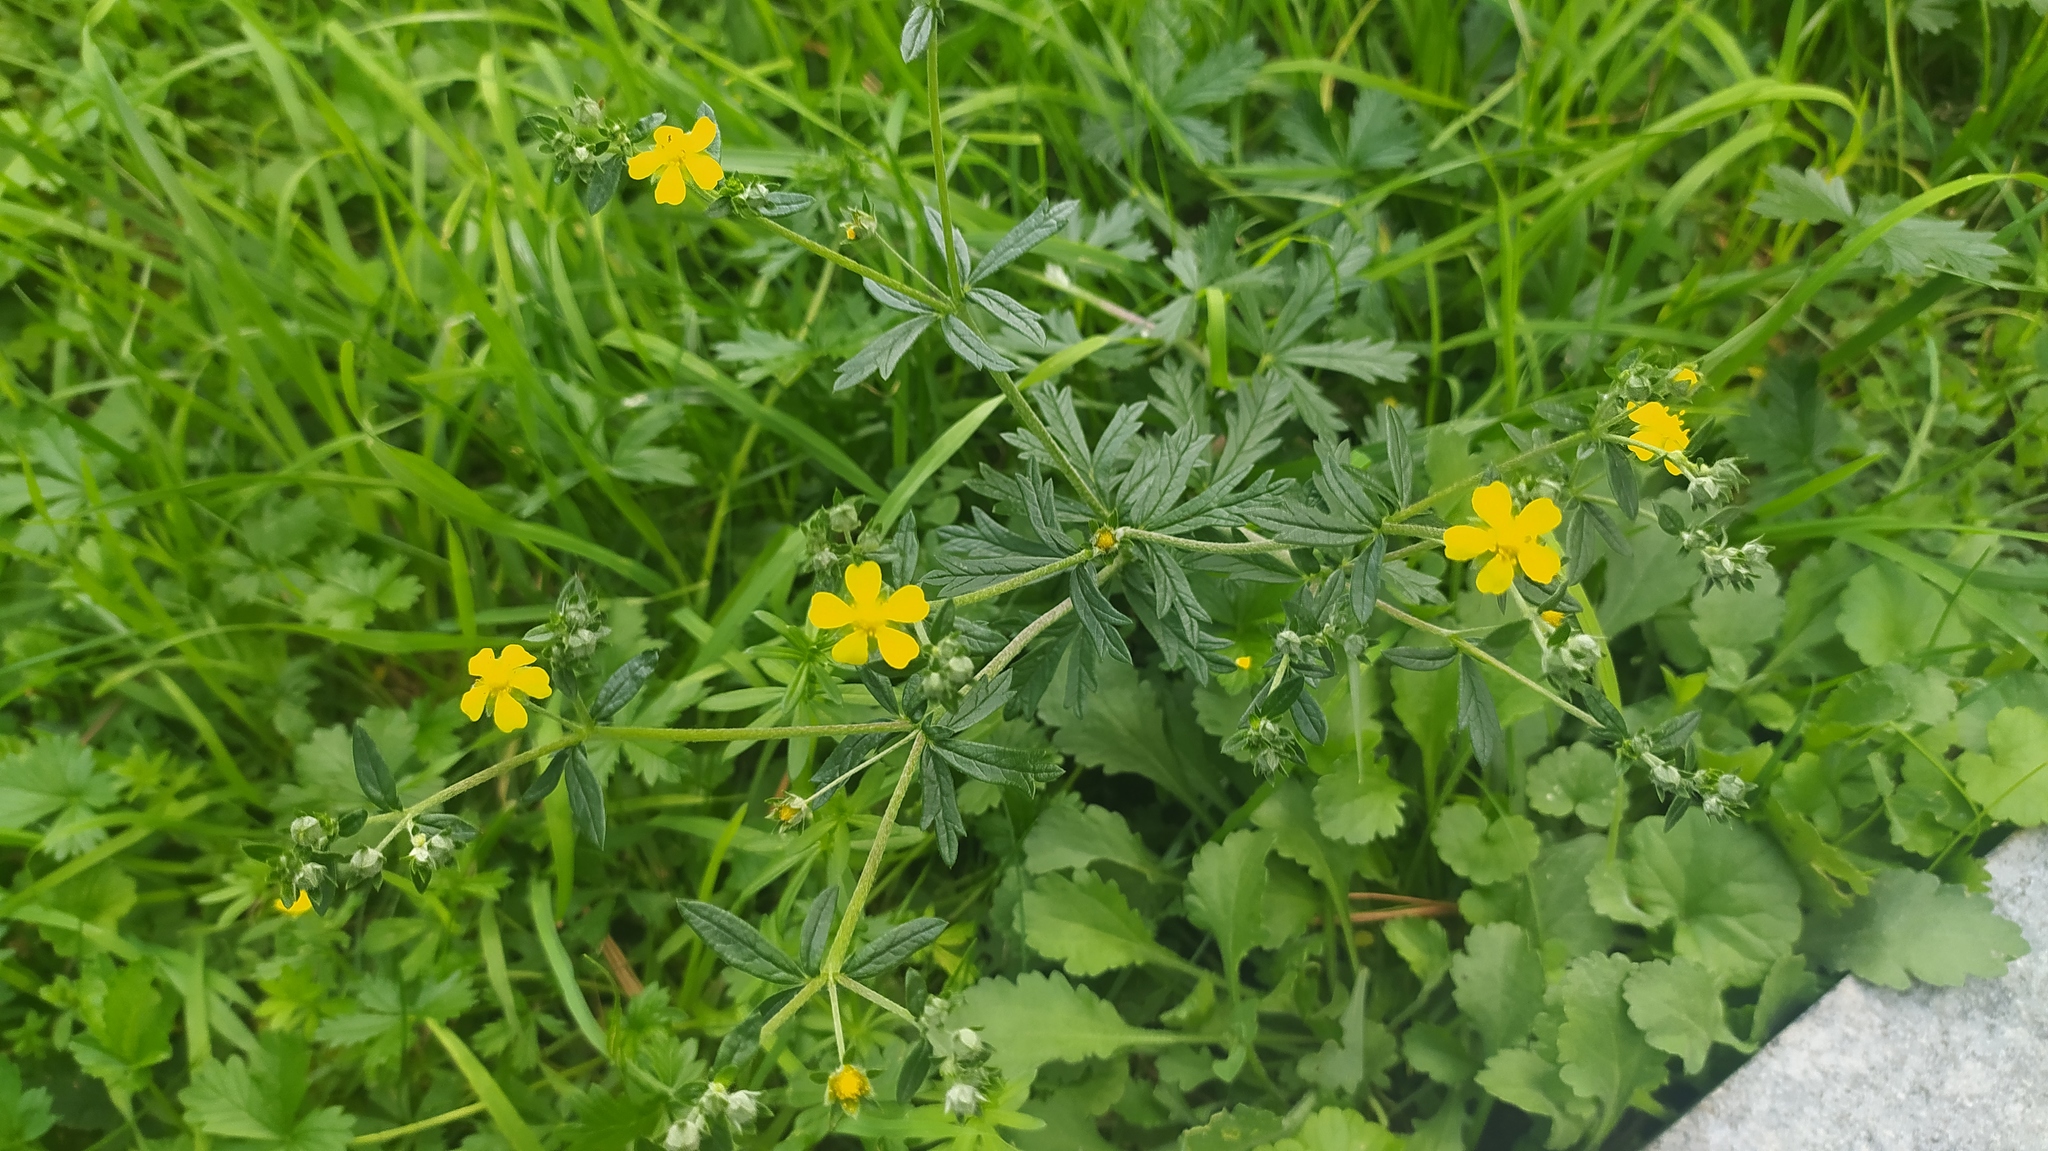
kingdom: Plantae
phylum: Tracheophyta
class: Magnoliopsida
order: Rosales
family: Rosaceae
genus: Potentilla
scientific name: Potentilla argentea
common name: Hoary cinquefoil
